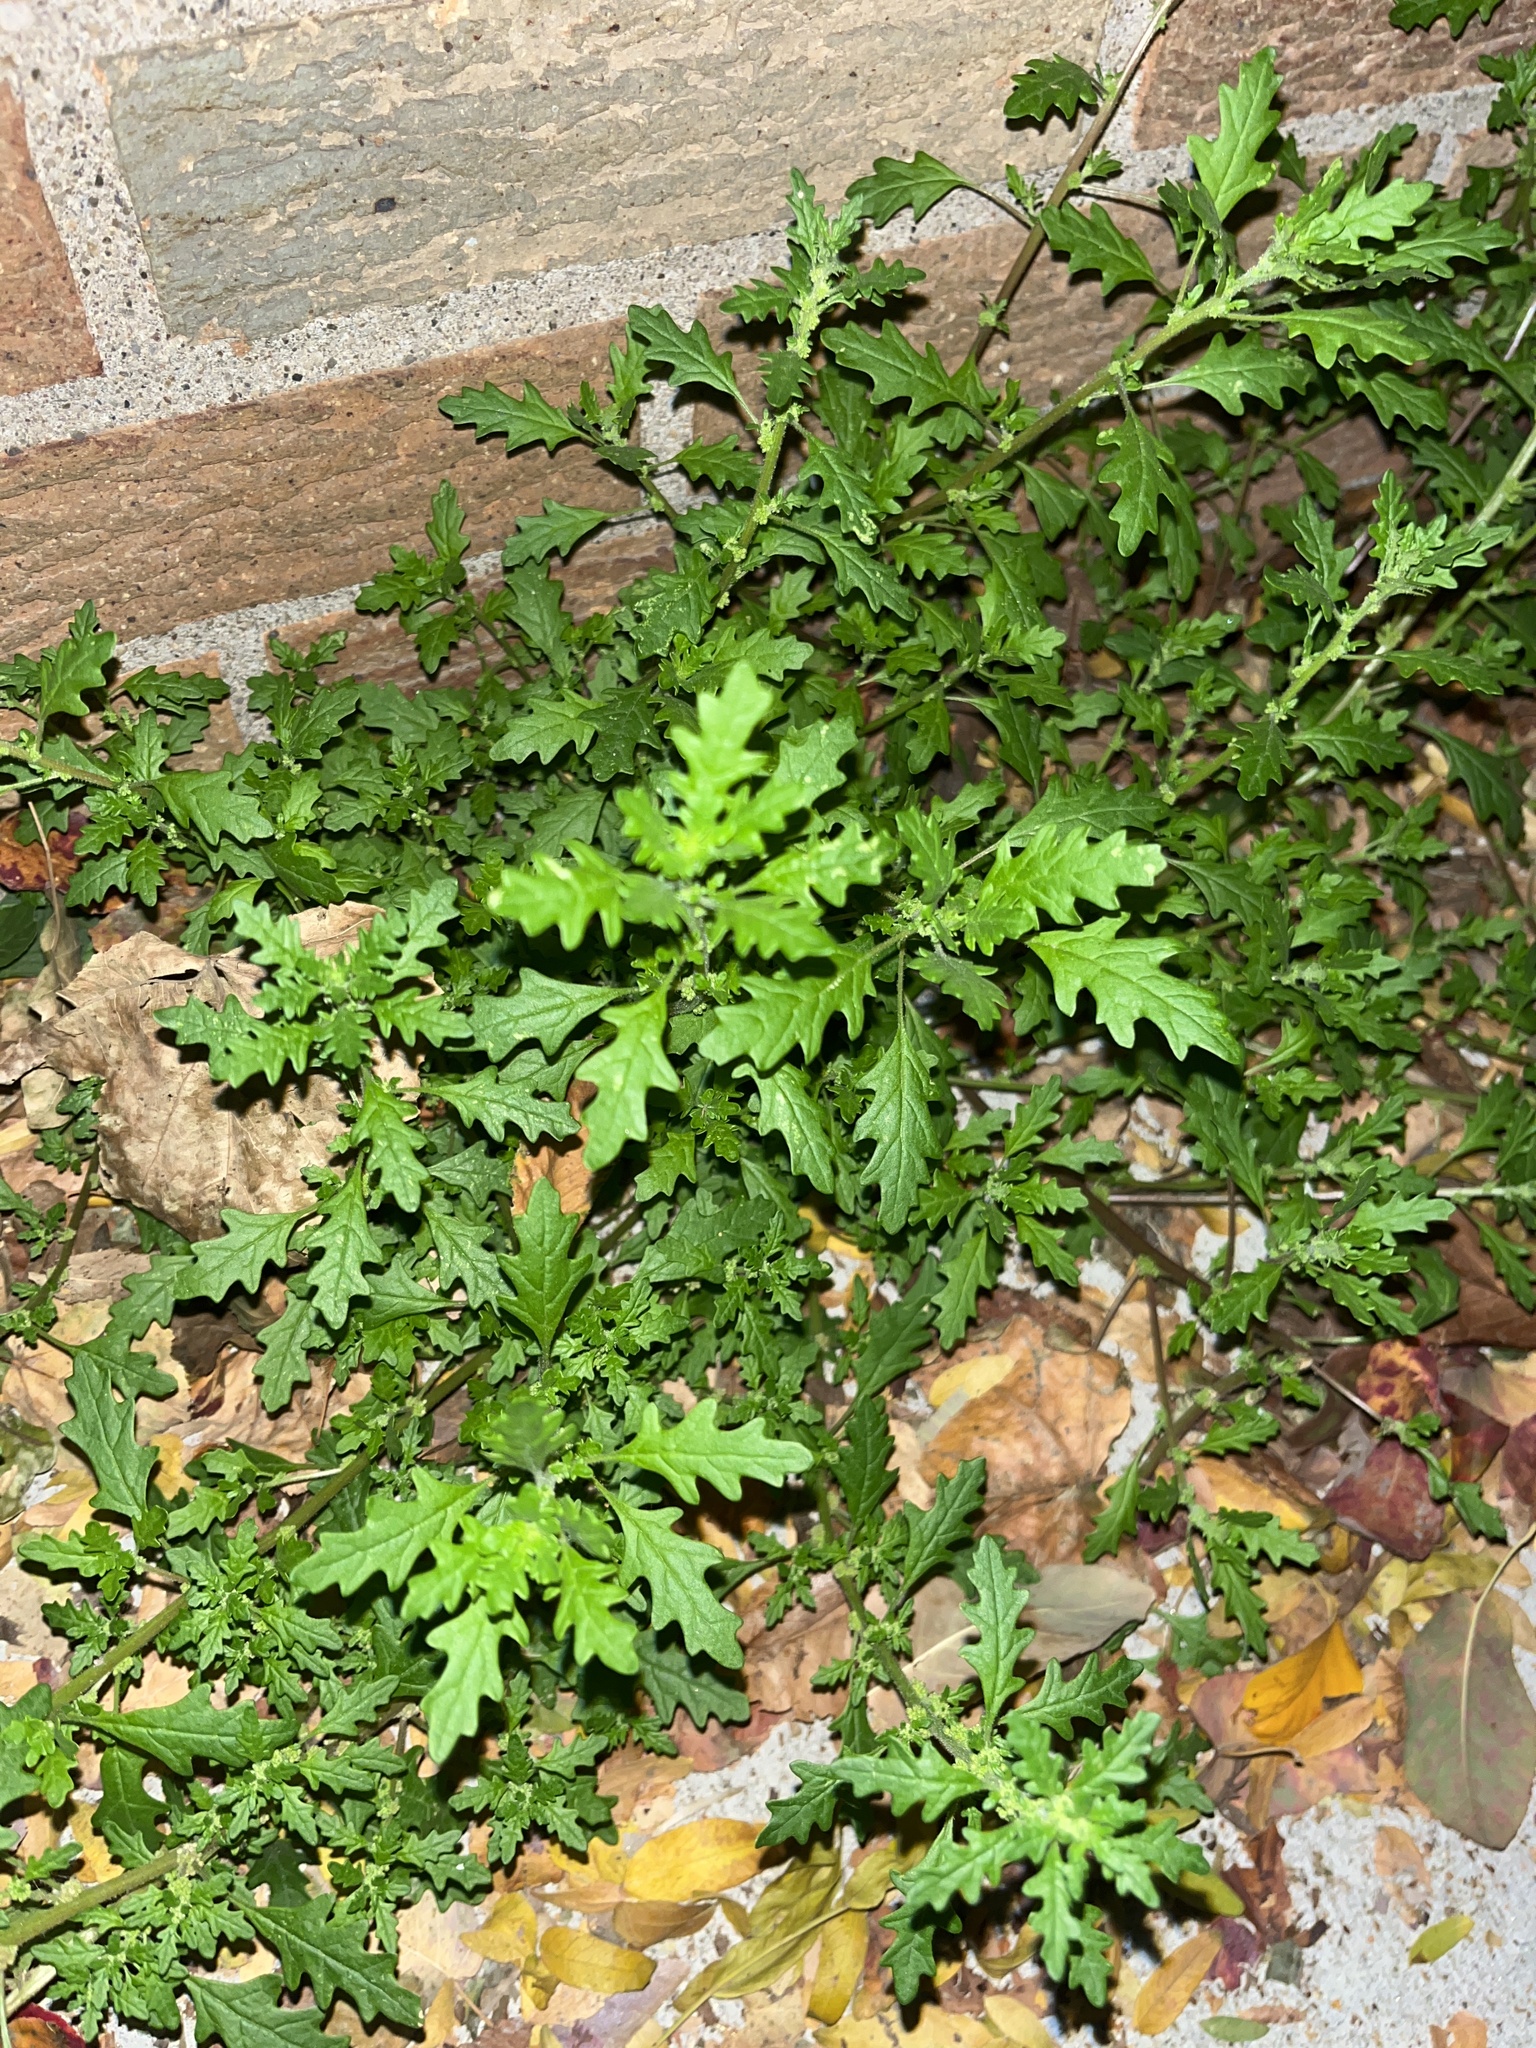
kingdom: Plantae
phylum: Tracheophyta
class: Magnoliopsida
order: Caryophyllales
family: Amaranthaceae
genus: Dysphania
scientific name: Dysphania pumilio
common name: Clammy goosefoot
